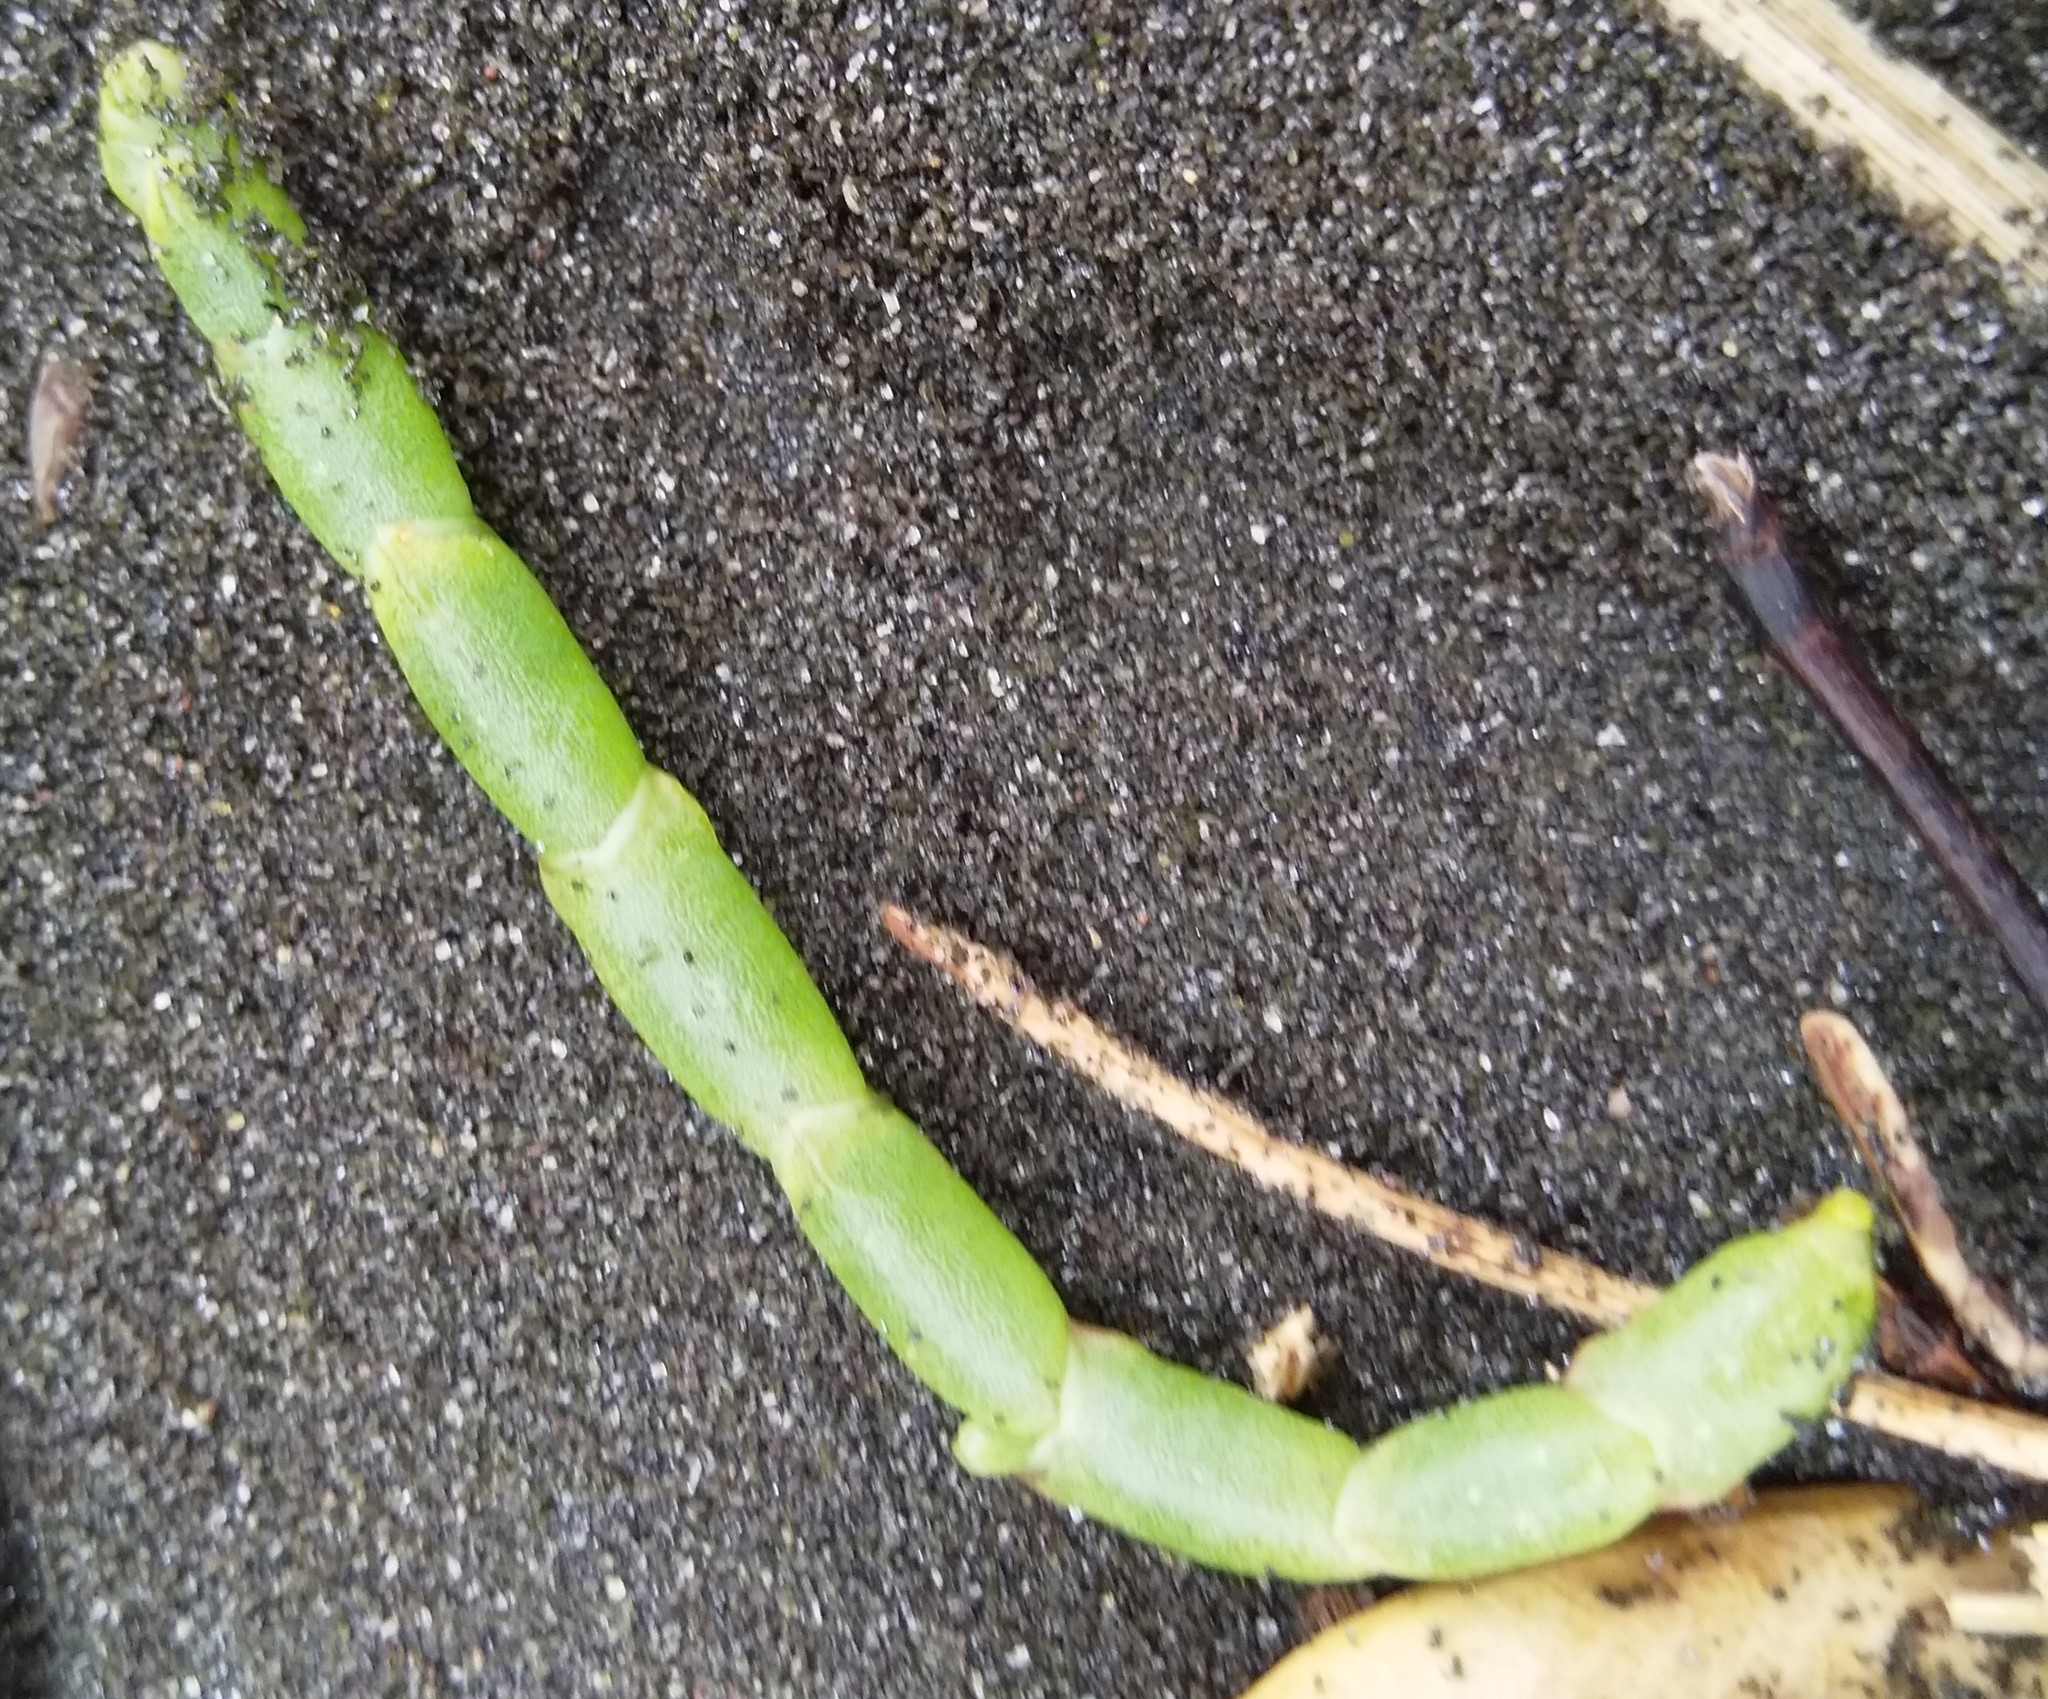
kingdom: Plantae
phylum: Tracheophyta
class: Magnoliopsida
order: Caryophyllales
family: Amaranthaceae
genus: Salicornia
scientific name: Salicornia quinqueflora
